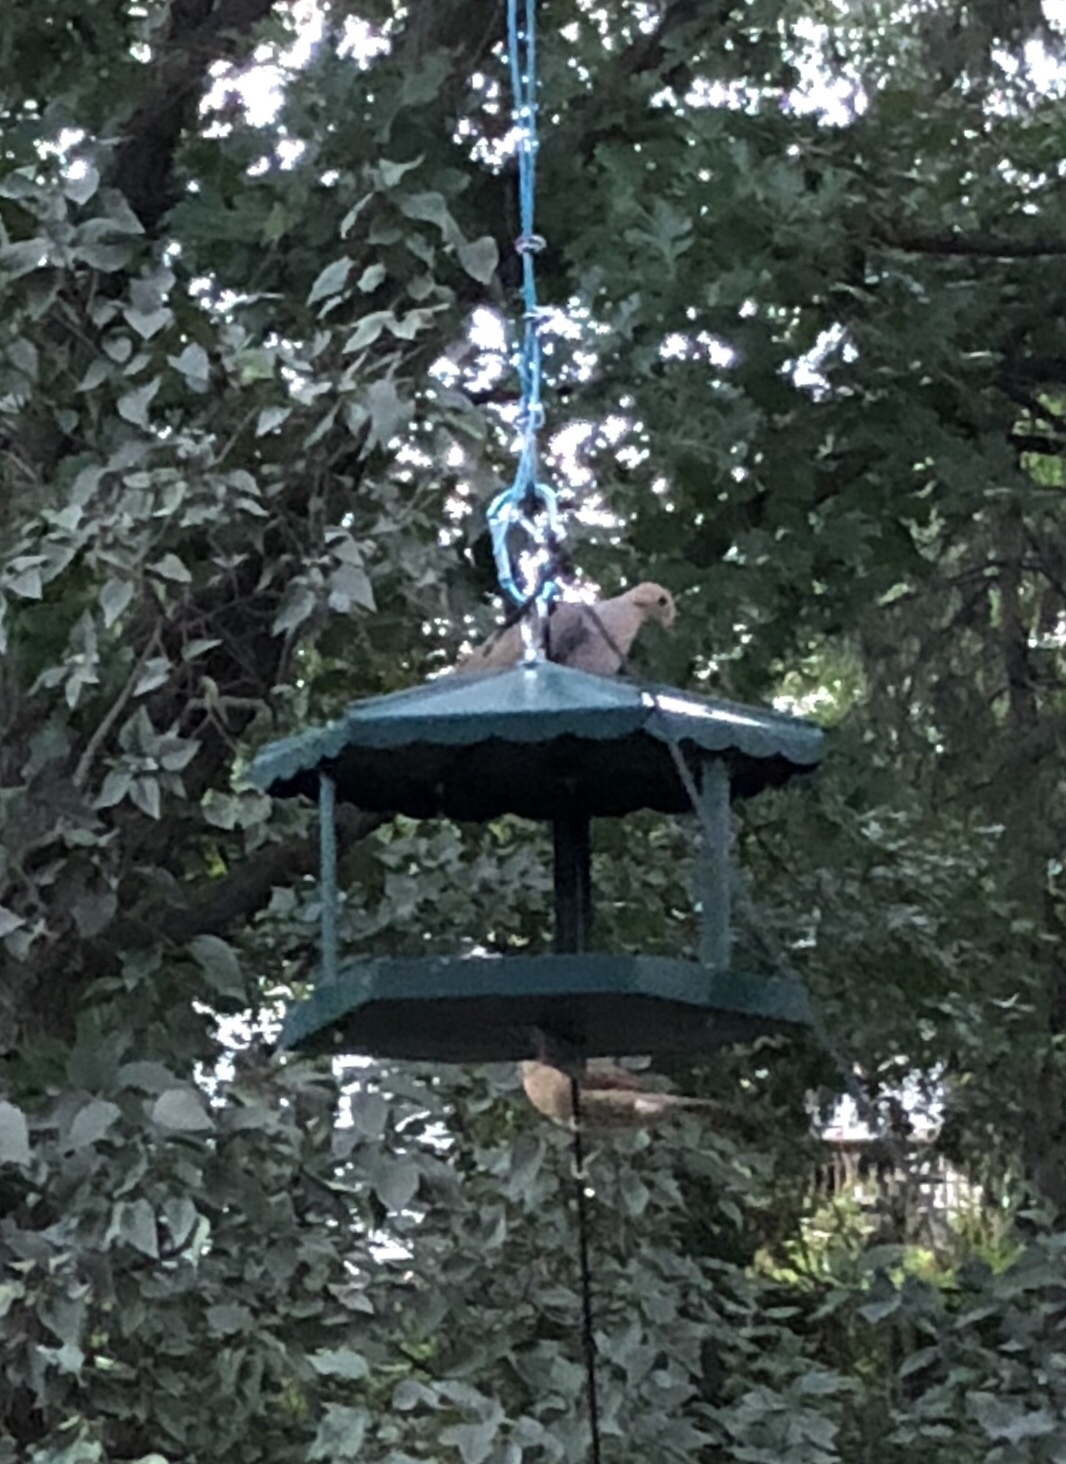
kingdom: Animalia
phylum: Chordata
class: Aves
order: Columbiformes
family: Columbidae
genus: Zenaida
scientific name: Zenaida macroura
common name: Mourning dove
